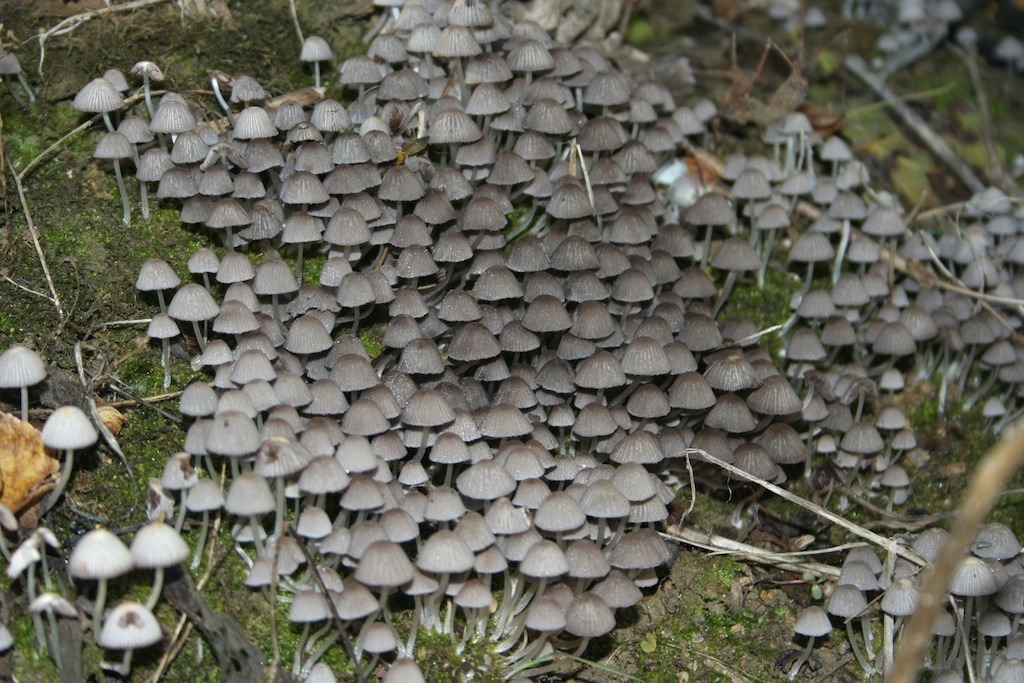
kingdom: Fungi
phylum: Basidiomycota
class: Agaricomycetes
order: Agaricales
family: Psathyrellaceae
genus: Coprinellus
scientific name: Coprinellus disseminatus
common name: Fairies' bonnets
